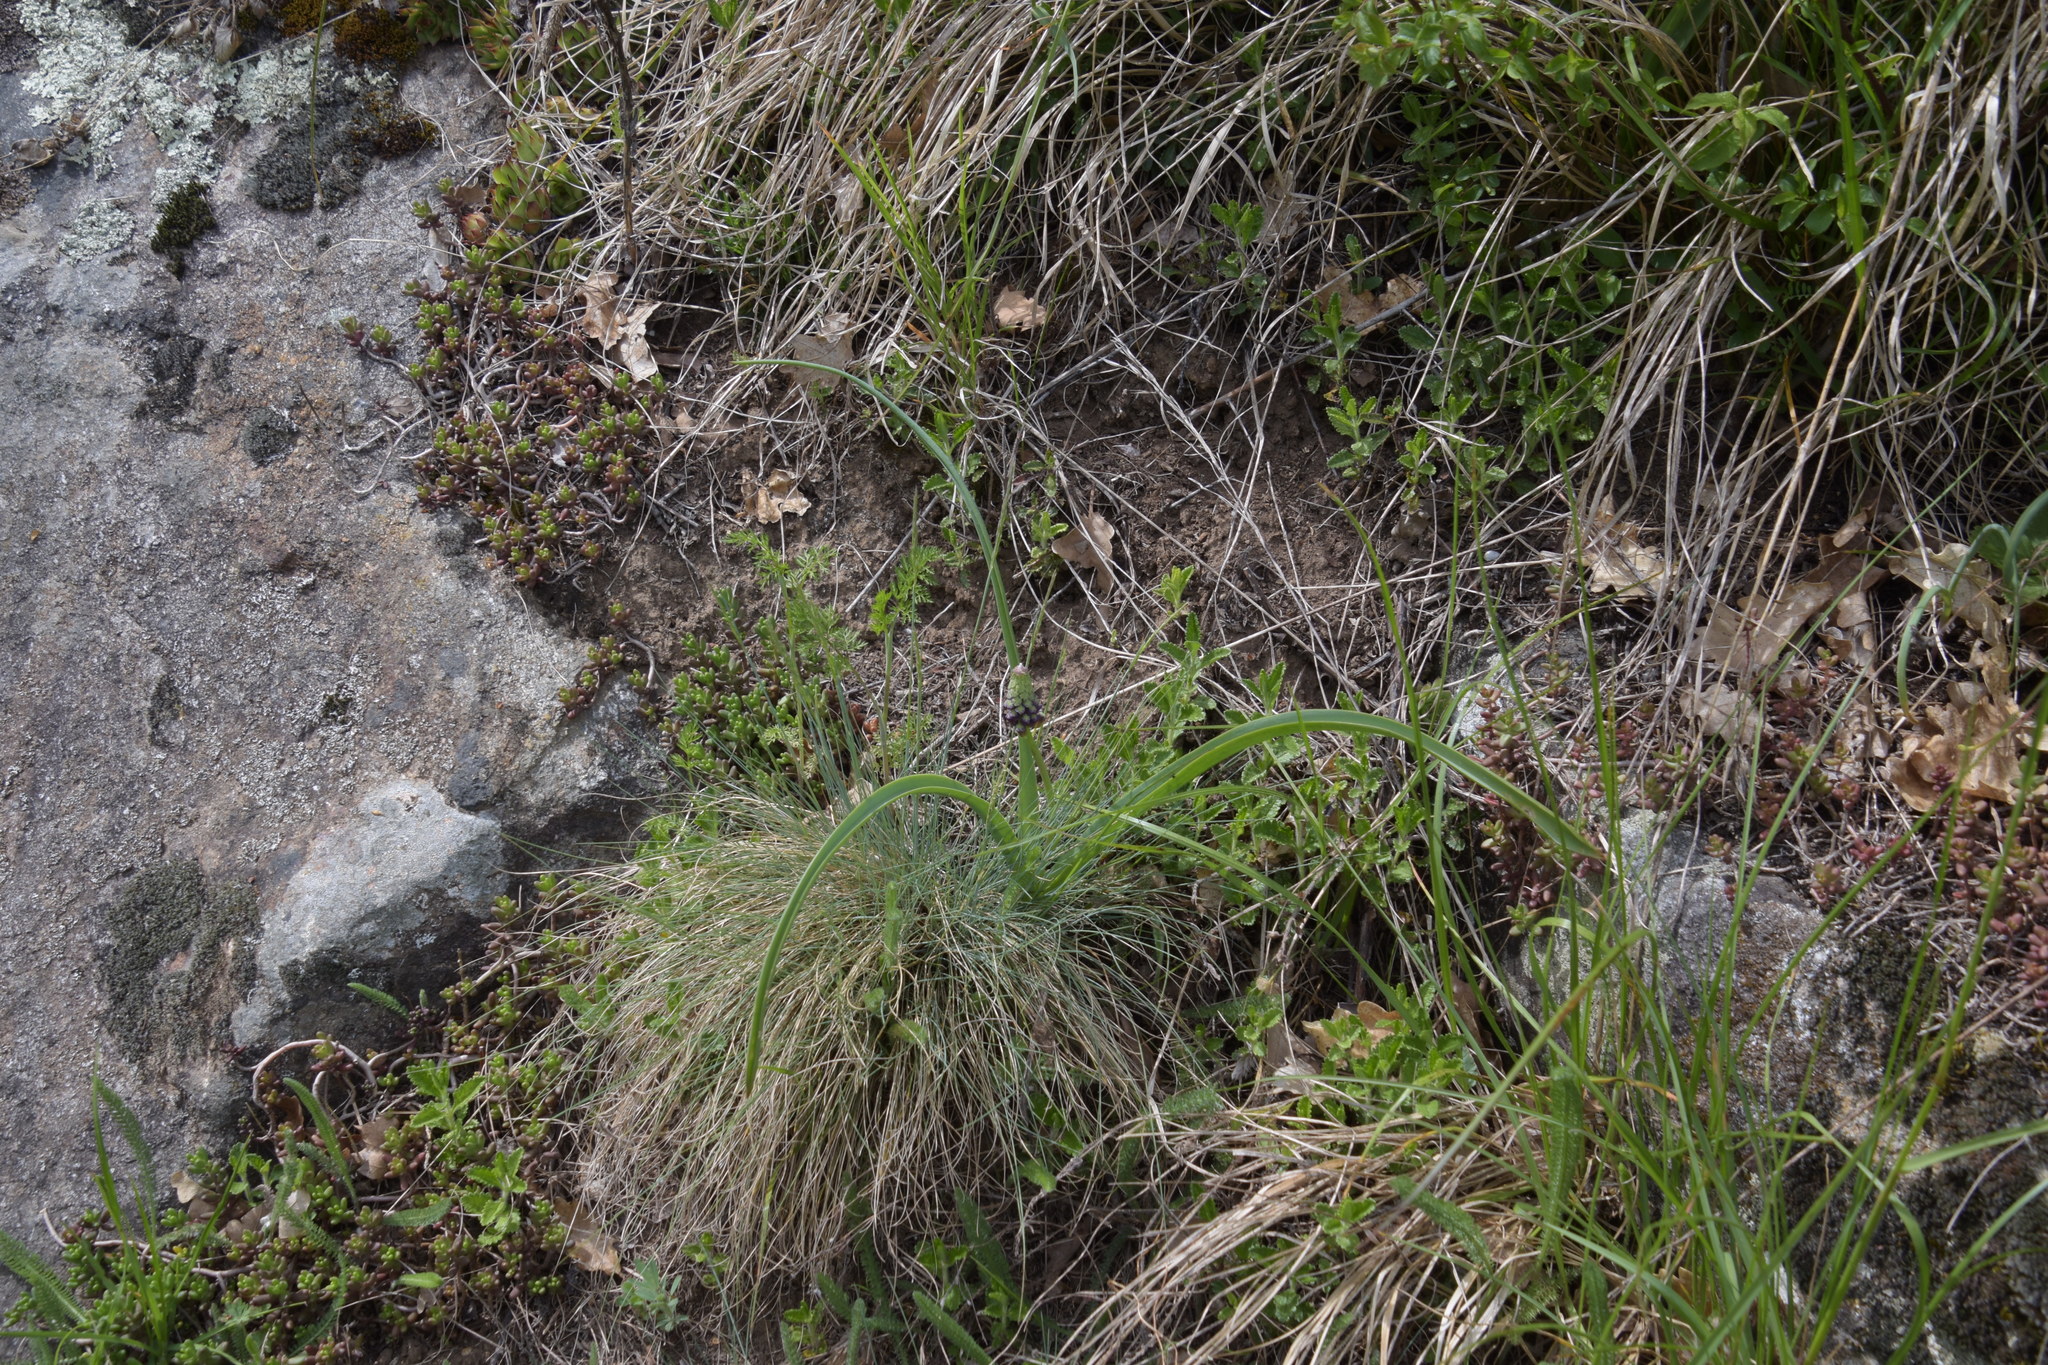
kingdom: Plantae
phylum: Tracheophyta
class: Liliopsida
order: Asparagales
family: Asparagaceae
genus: Muscari
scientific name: Muscari comosum
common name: Tassel hyacinth
